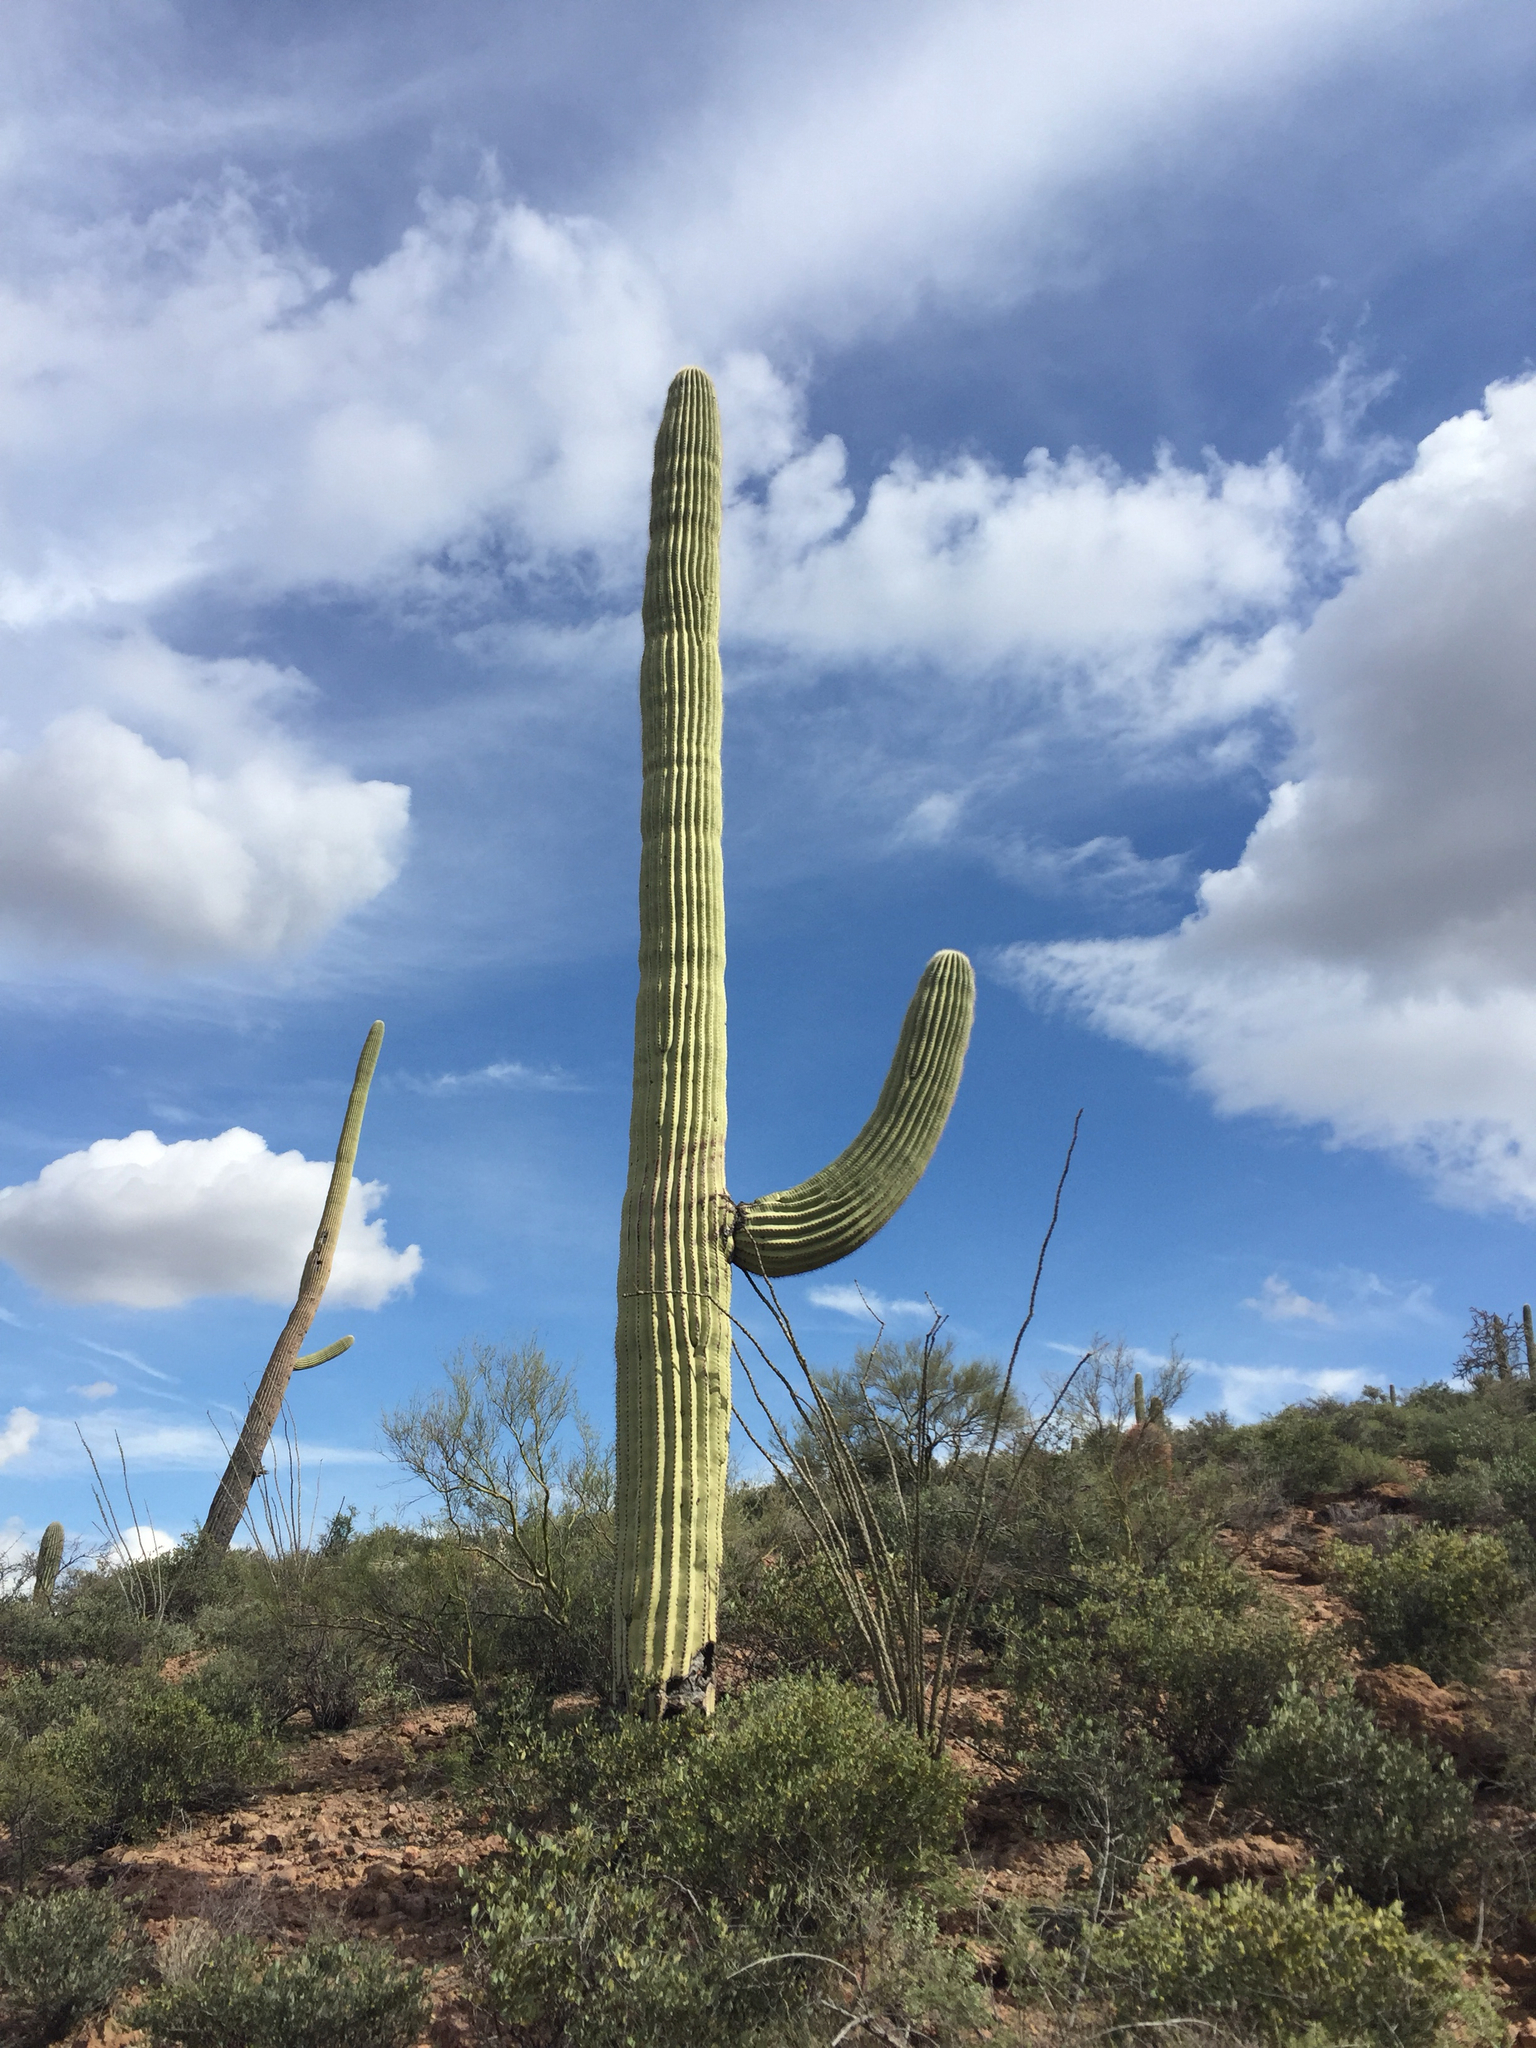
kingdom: Plantae
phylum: Tracheophyta
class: Magnoliopsida
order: Caryophyllales
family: Cactaceae
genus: Carnegiea
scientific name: Carnegiea gigantea
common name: Saguaro
